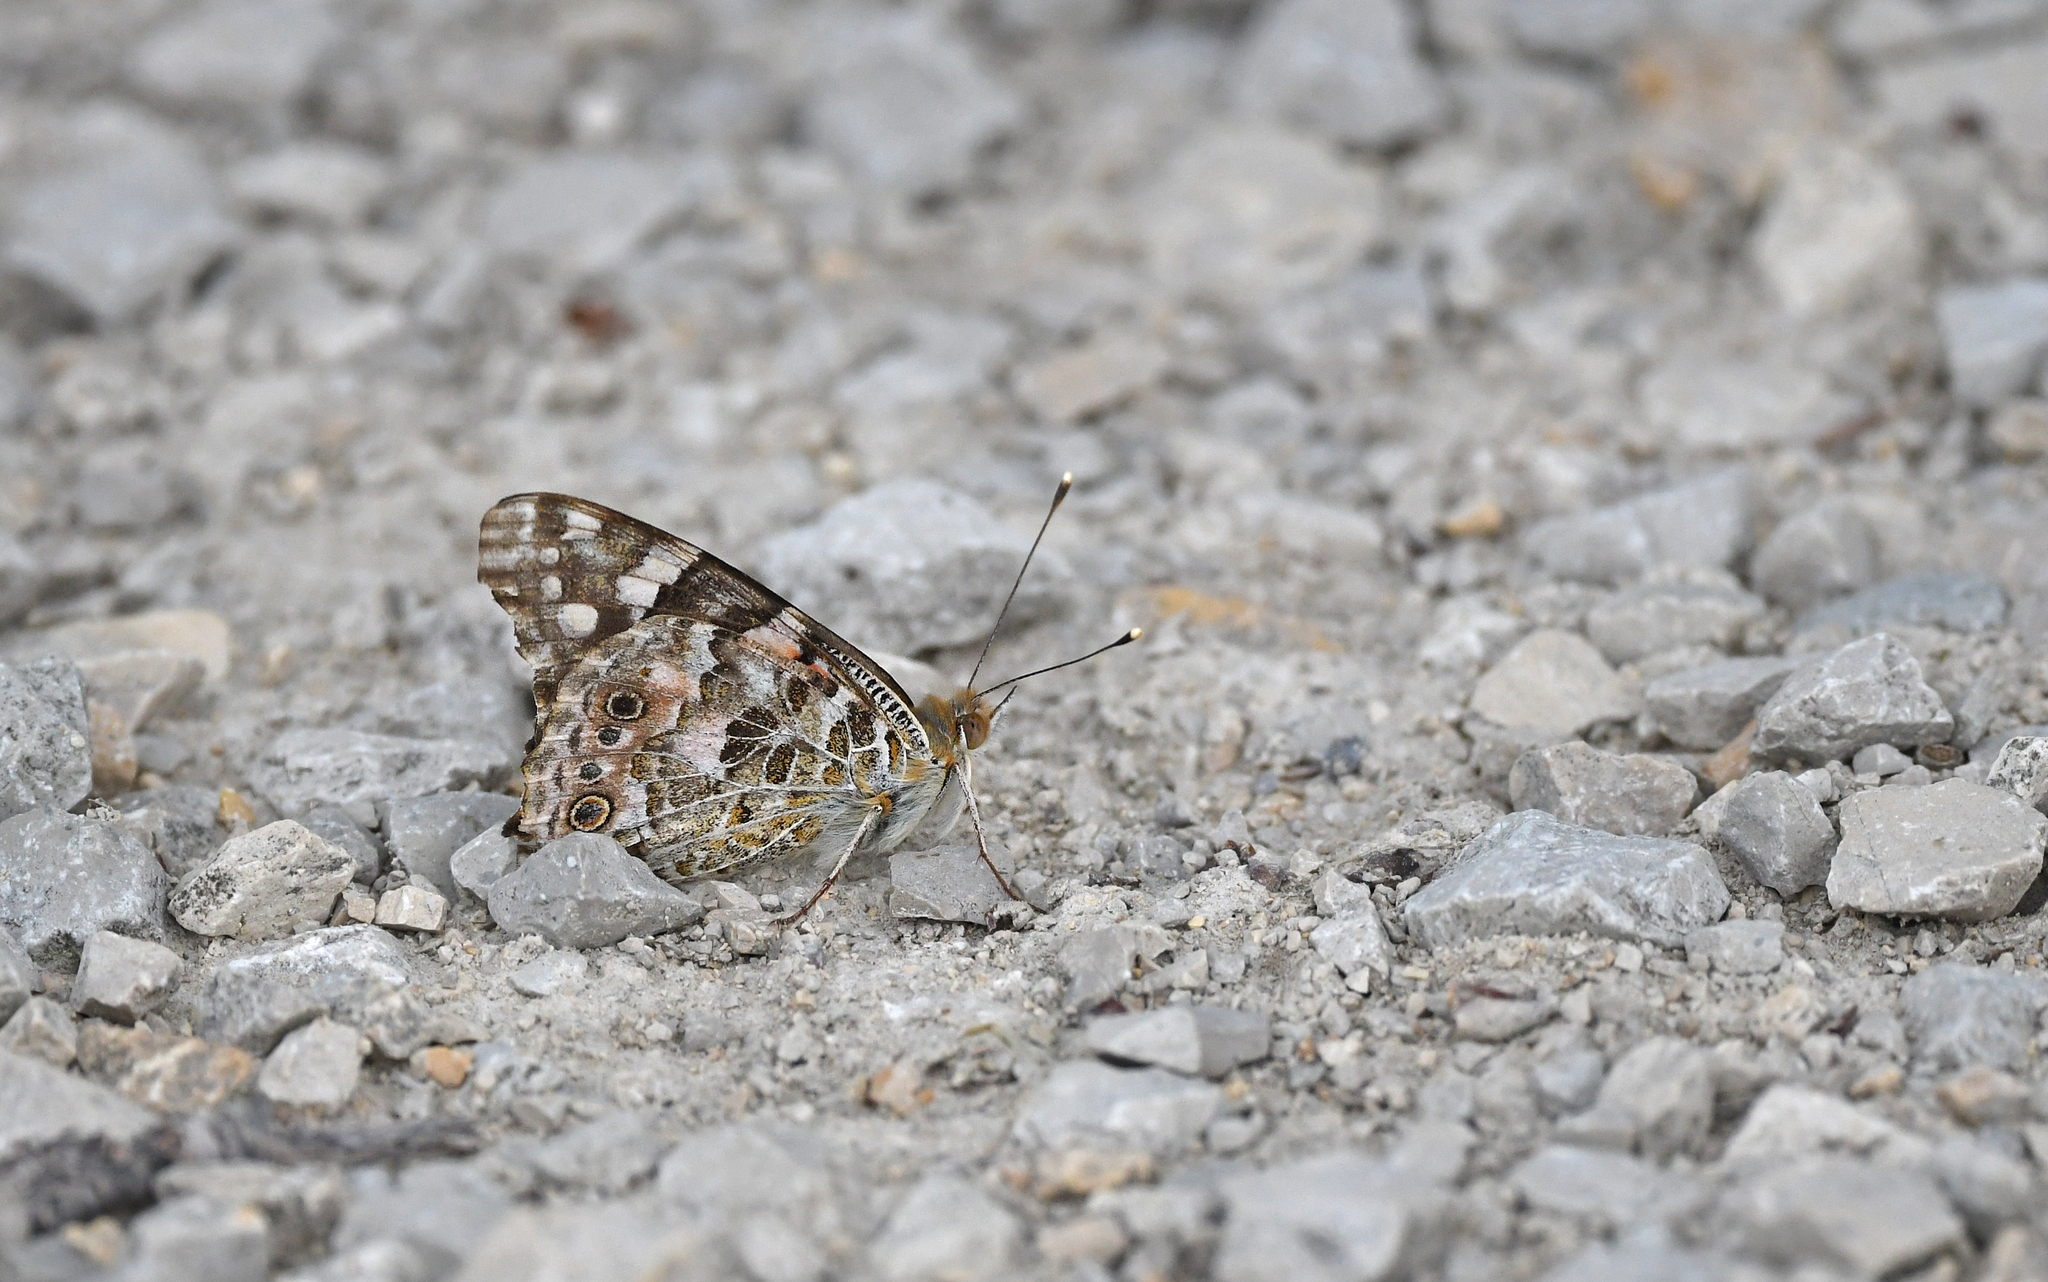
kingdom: Animalia
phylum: Arthropoda
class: Insecta
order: Lepidoptera
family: Nymphalidae
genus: Vanessa
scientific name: Vanessa cardui
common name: Painted lady
